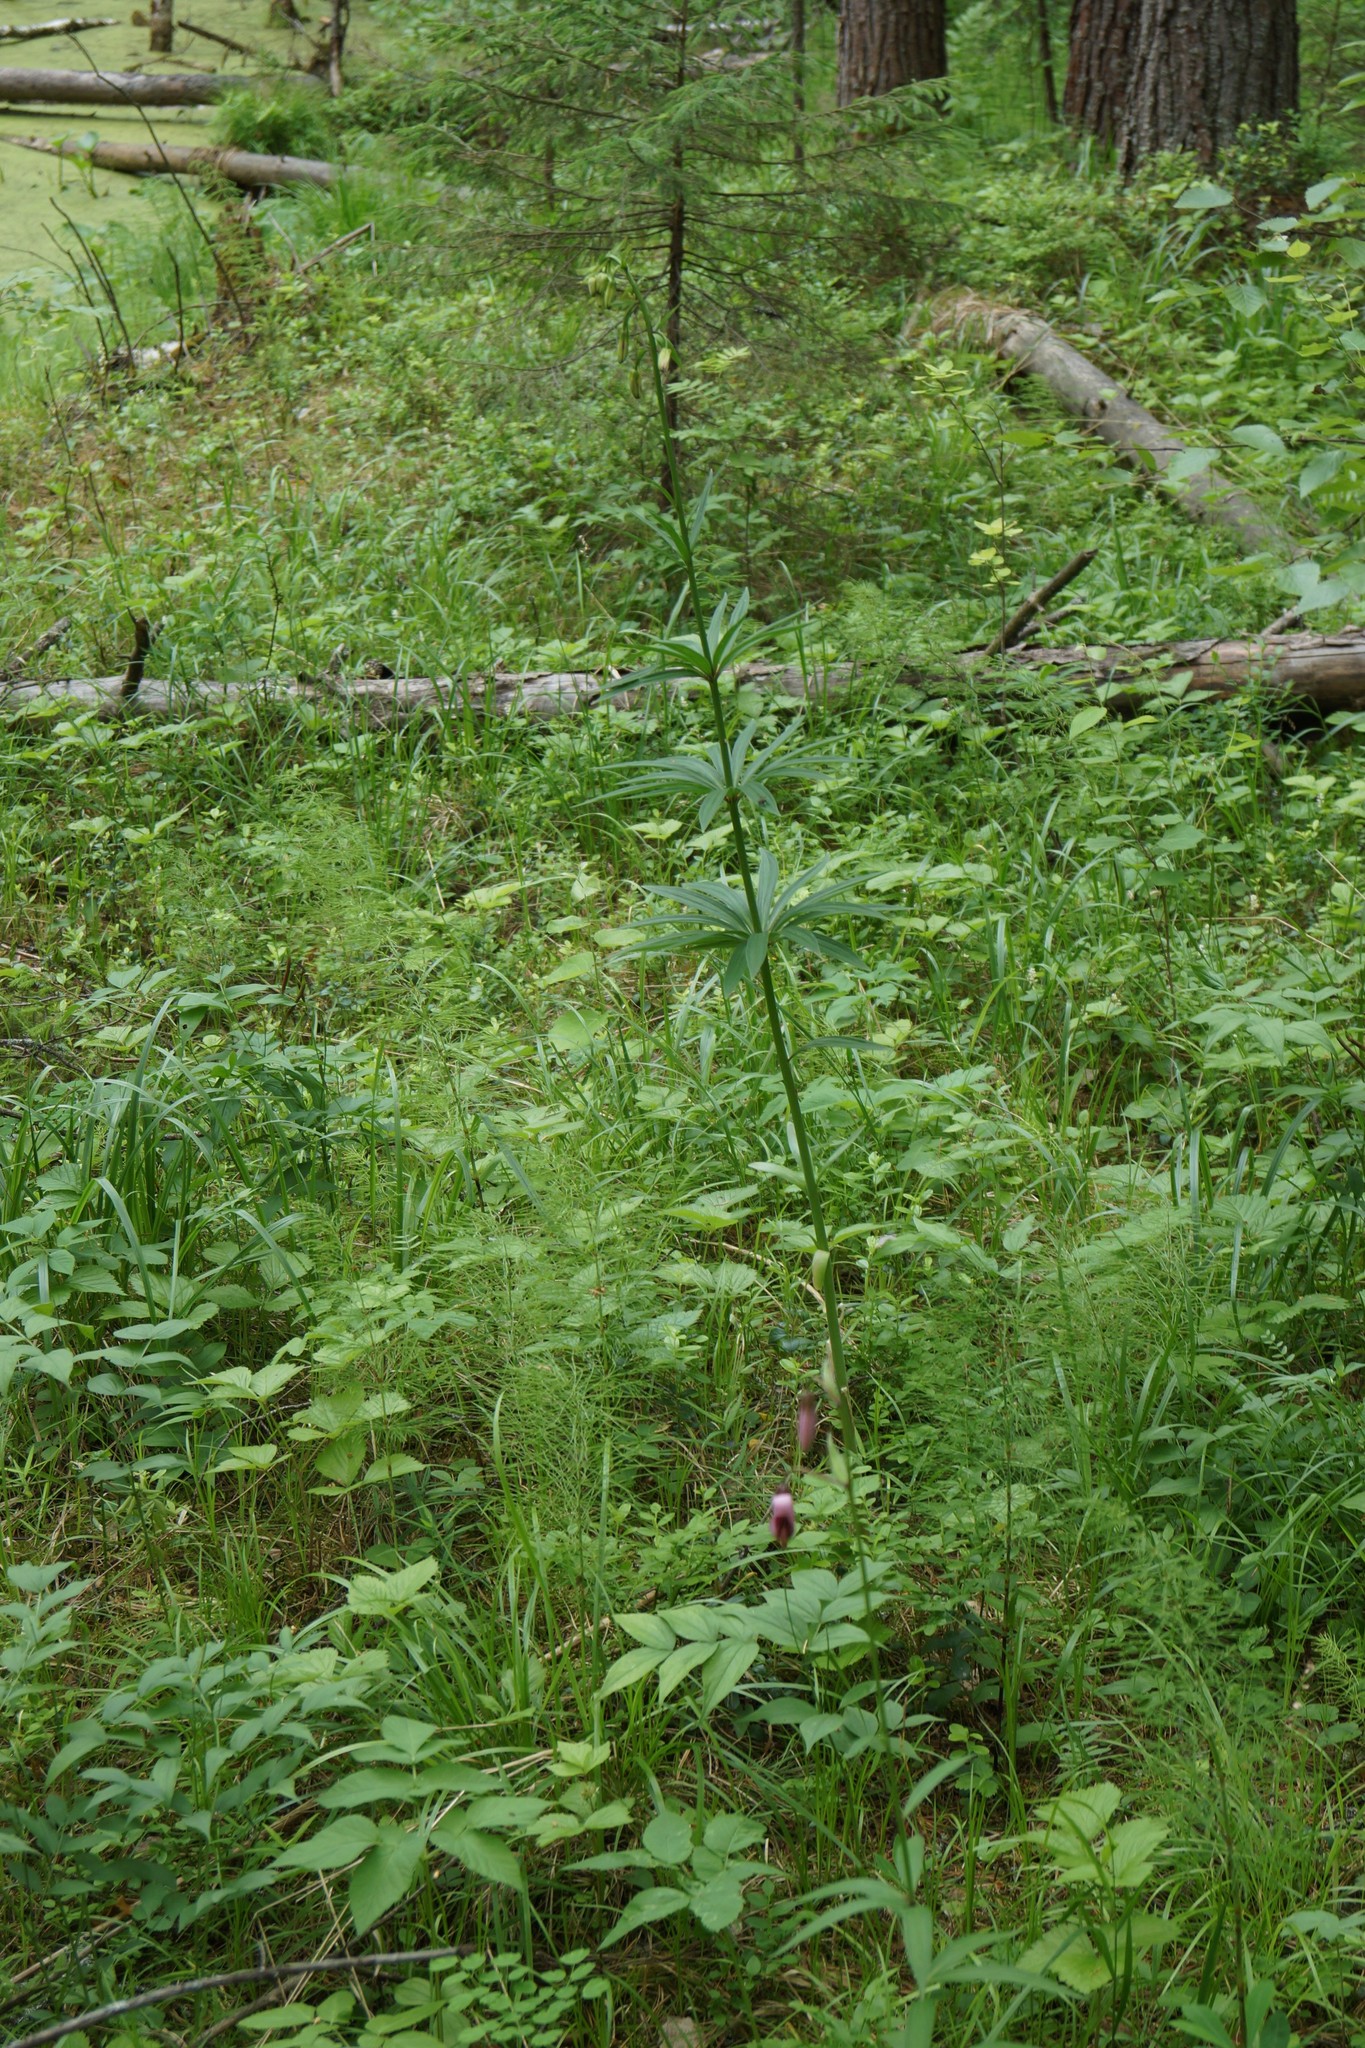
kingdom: Plantae
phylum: Tracheophyta
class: Liliopsida
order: Liliales
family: Liliaceae
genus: Lilium
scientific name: Lilium martagon
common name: Martagon lily
